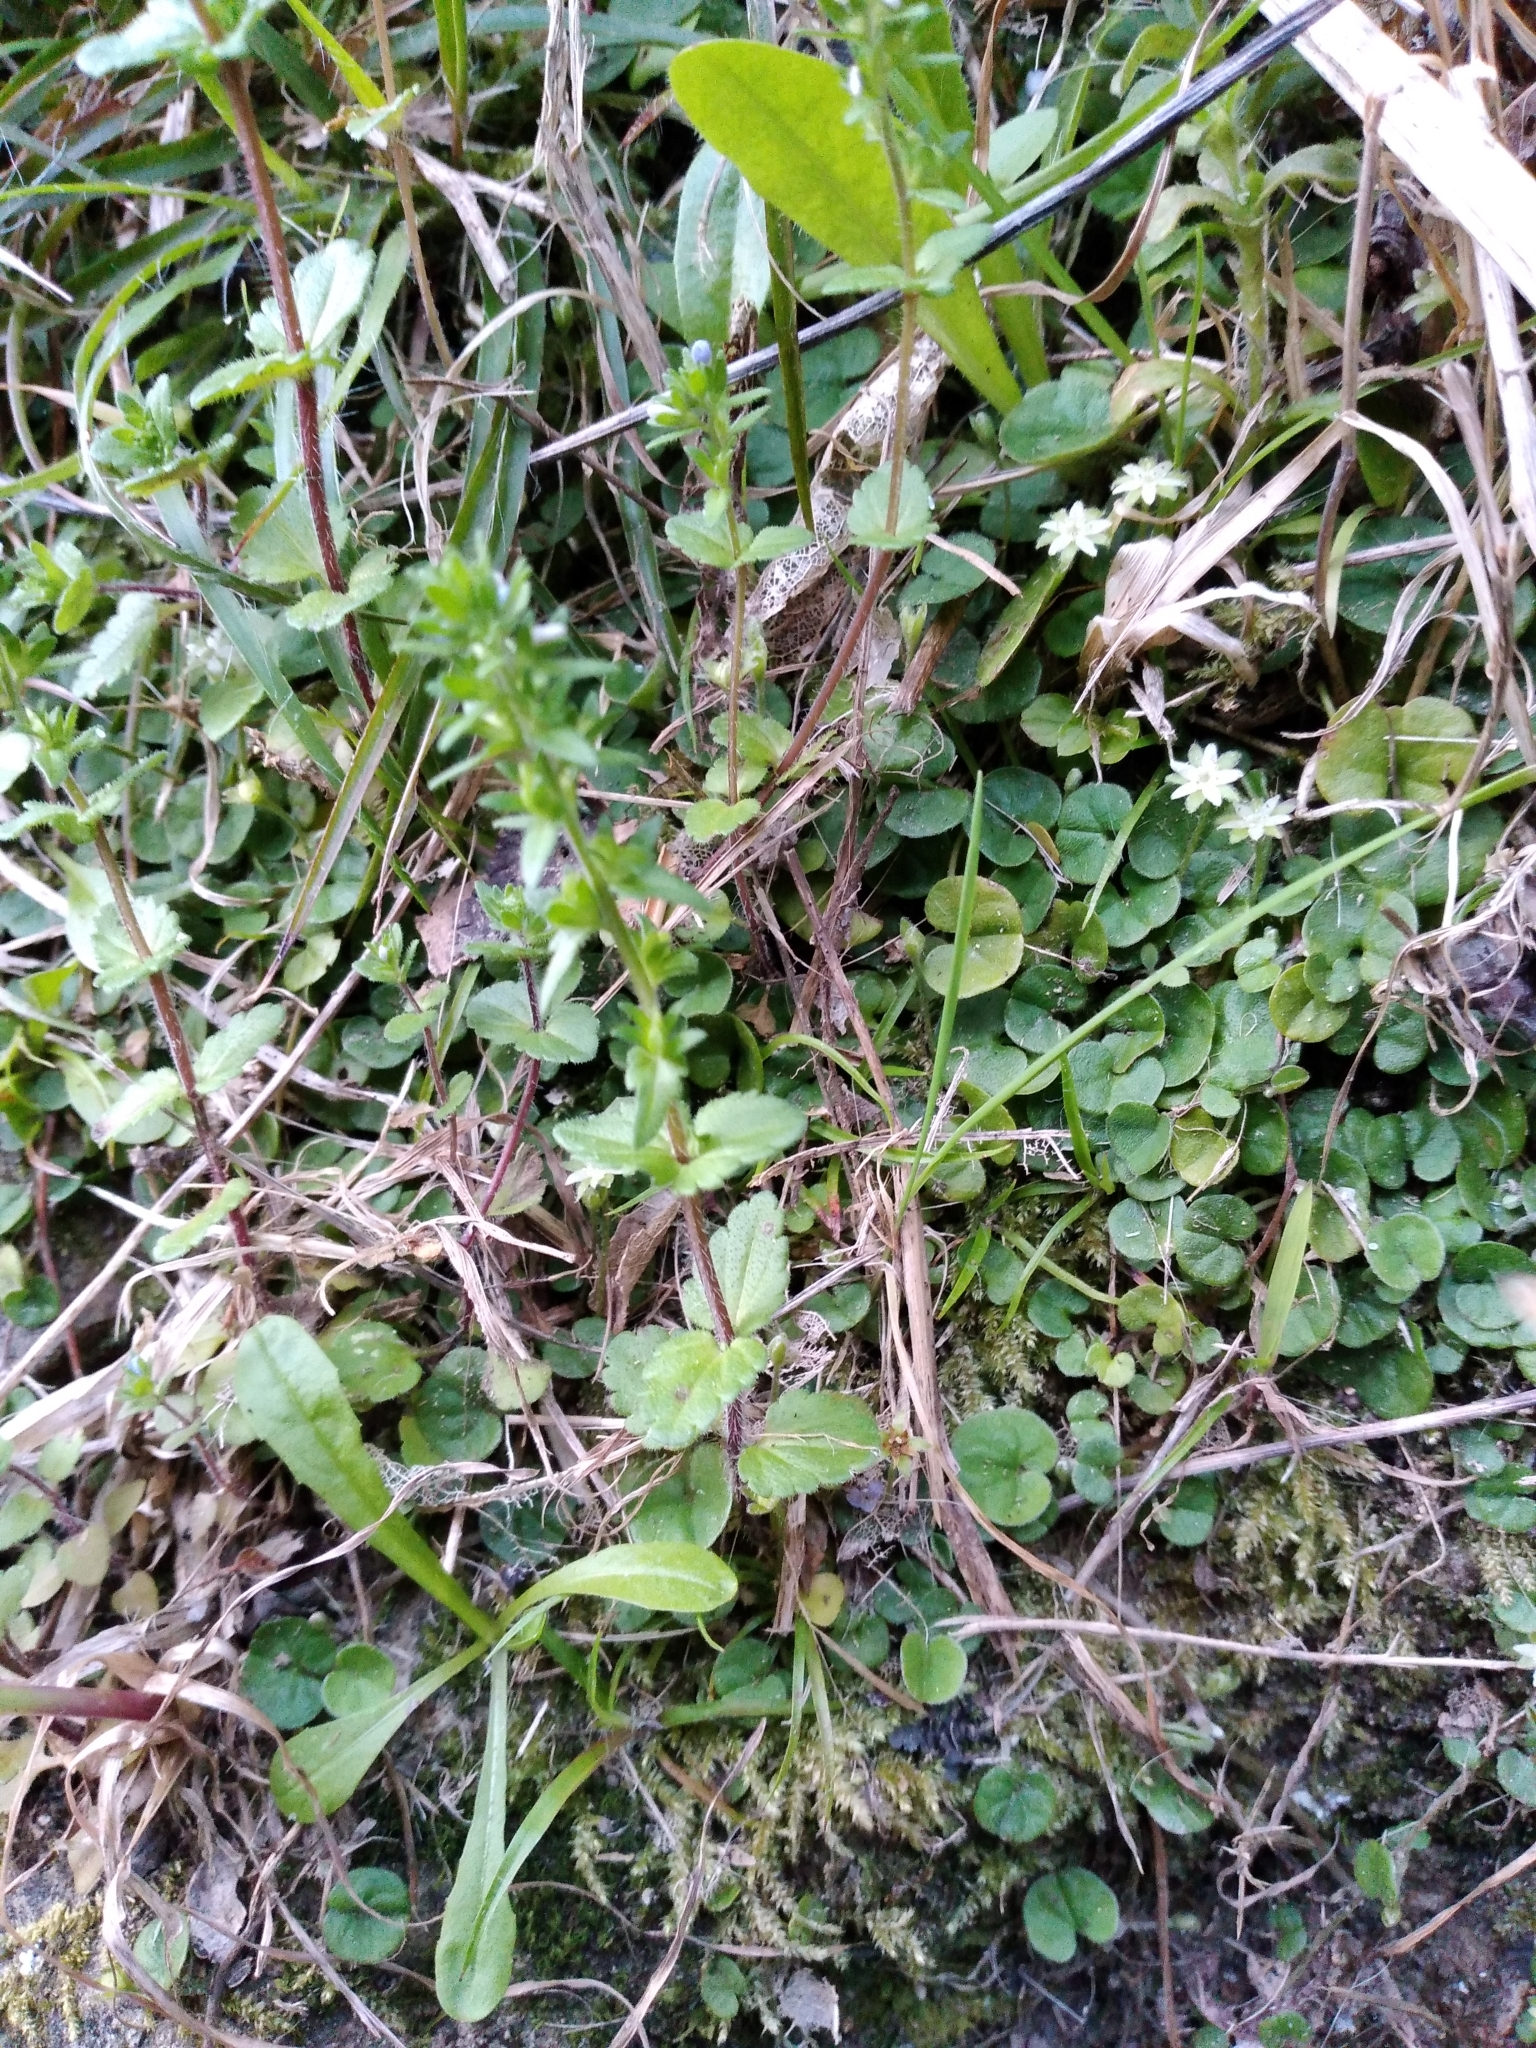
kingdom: Plantae
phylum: Tracheophyta
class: Magnoliopsida
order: Lamiales
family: Plantaginaceae
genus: Veronica
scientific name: Veronica arvensis
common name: Corn speedwell
